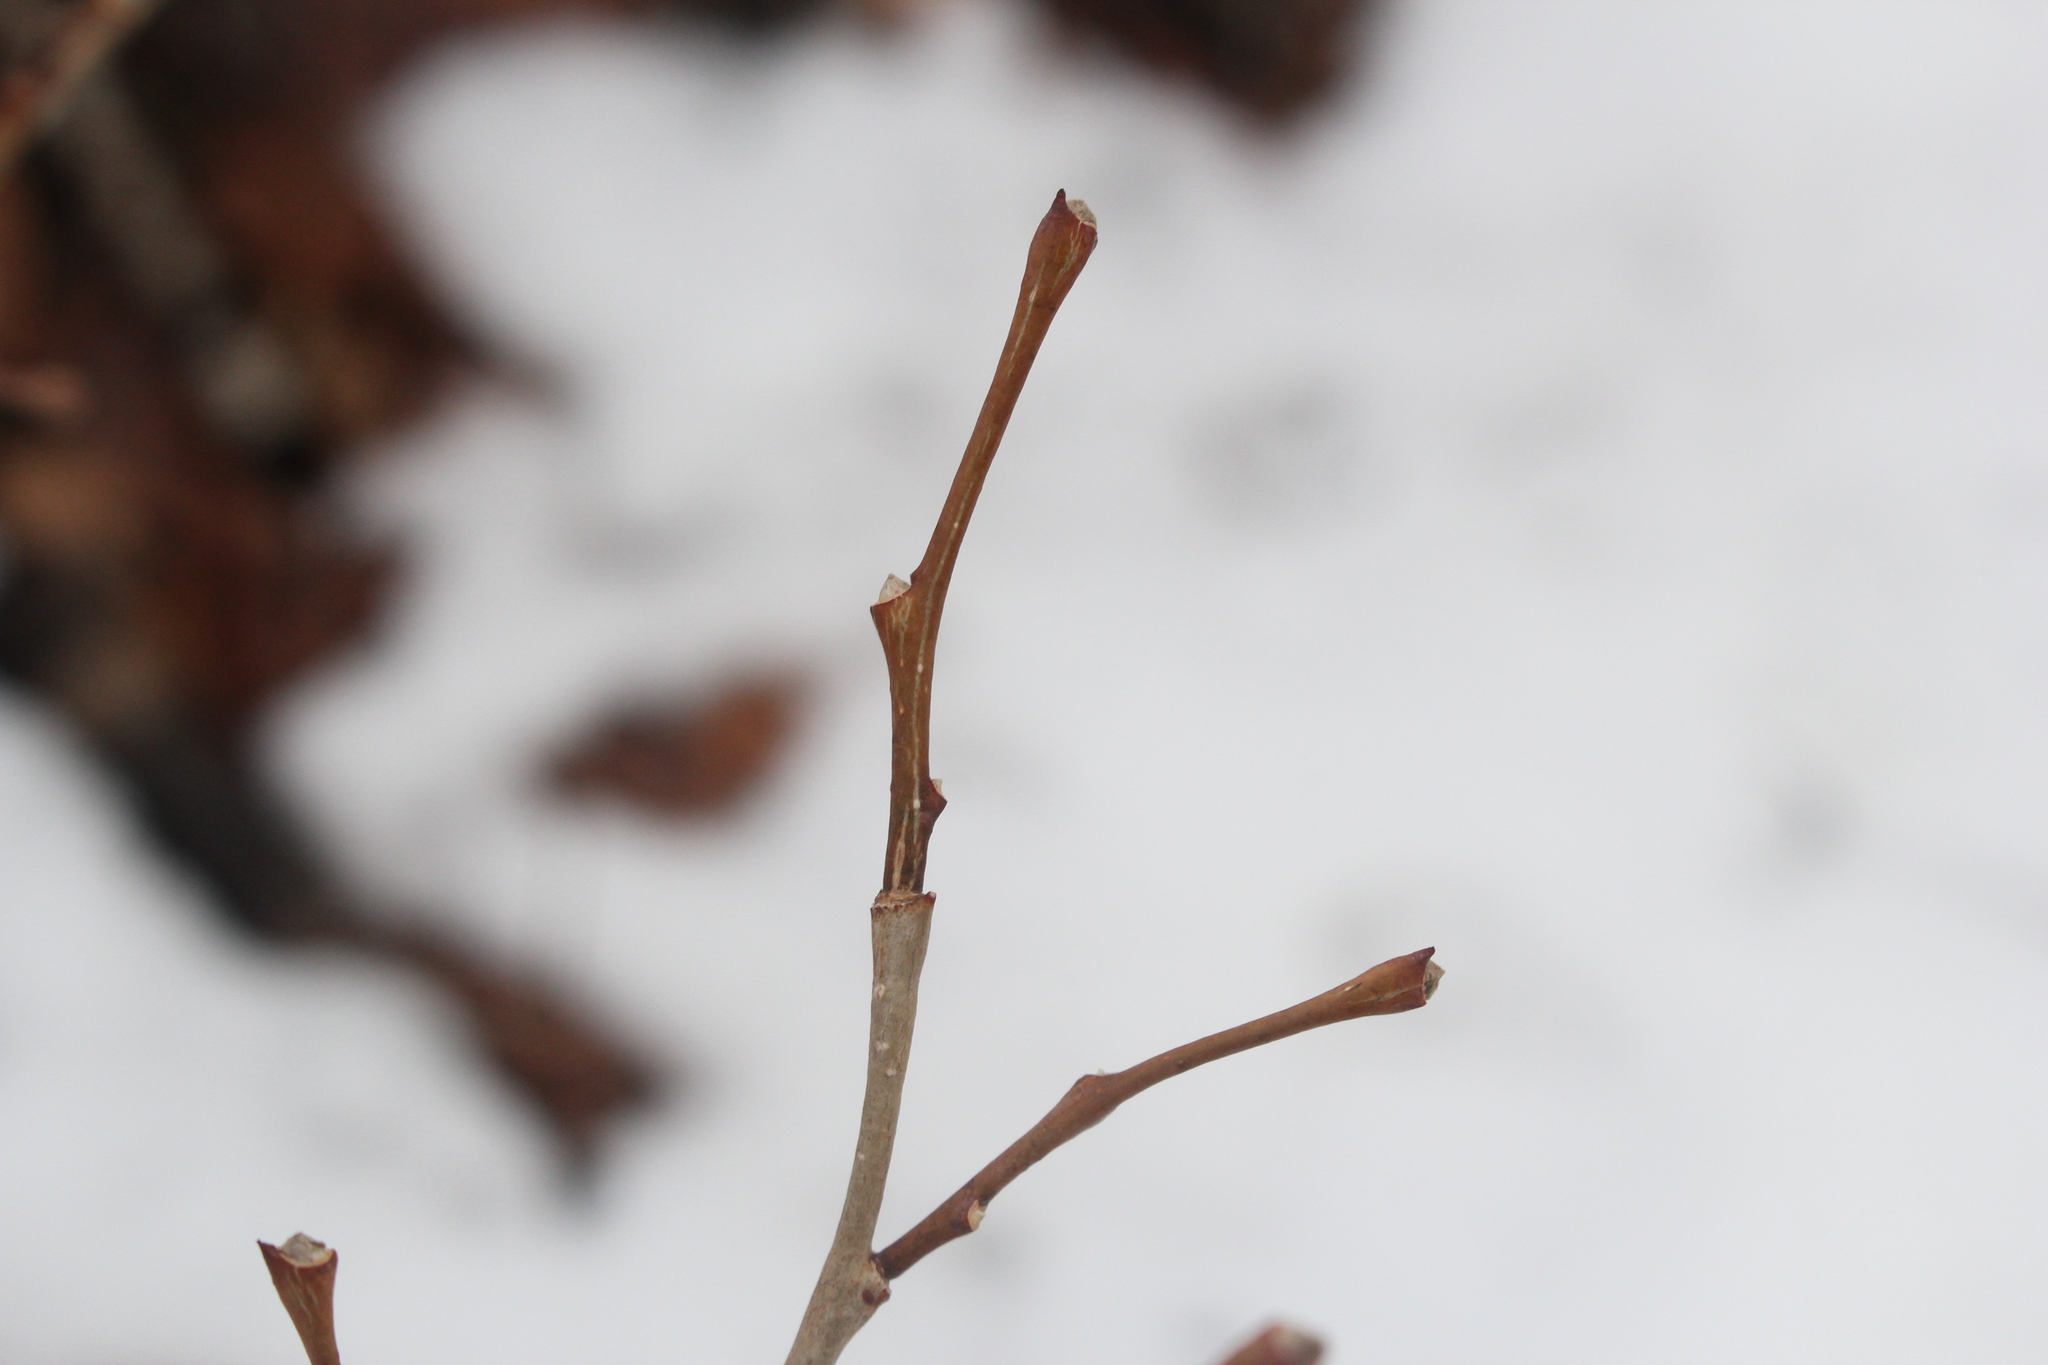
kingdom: Plantae
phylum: Tracheophyta
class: Magnoliopsida
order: Malvales
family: Thymelaeaceae
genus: Dirca
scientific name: Dirca palustris
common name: Leatherwood
